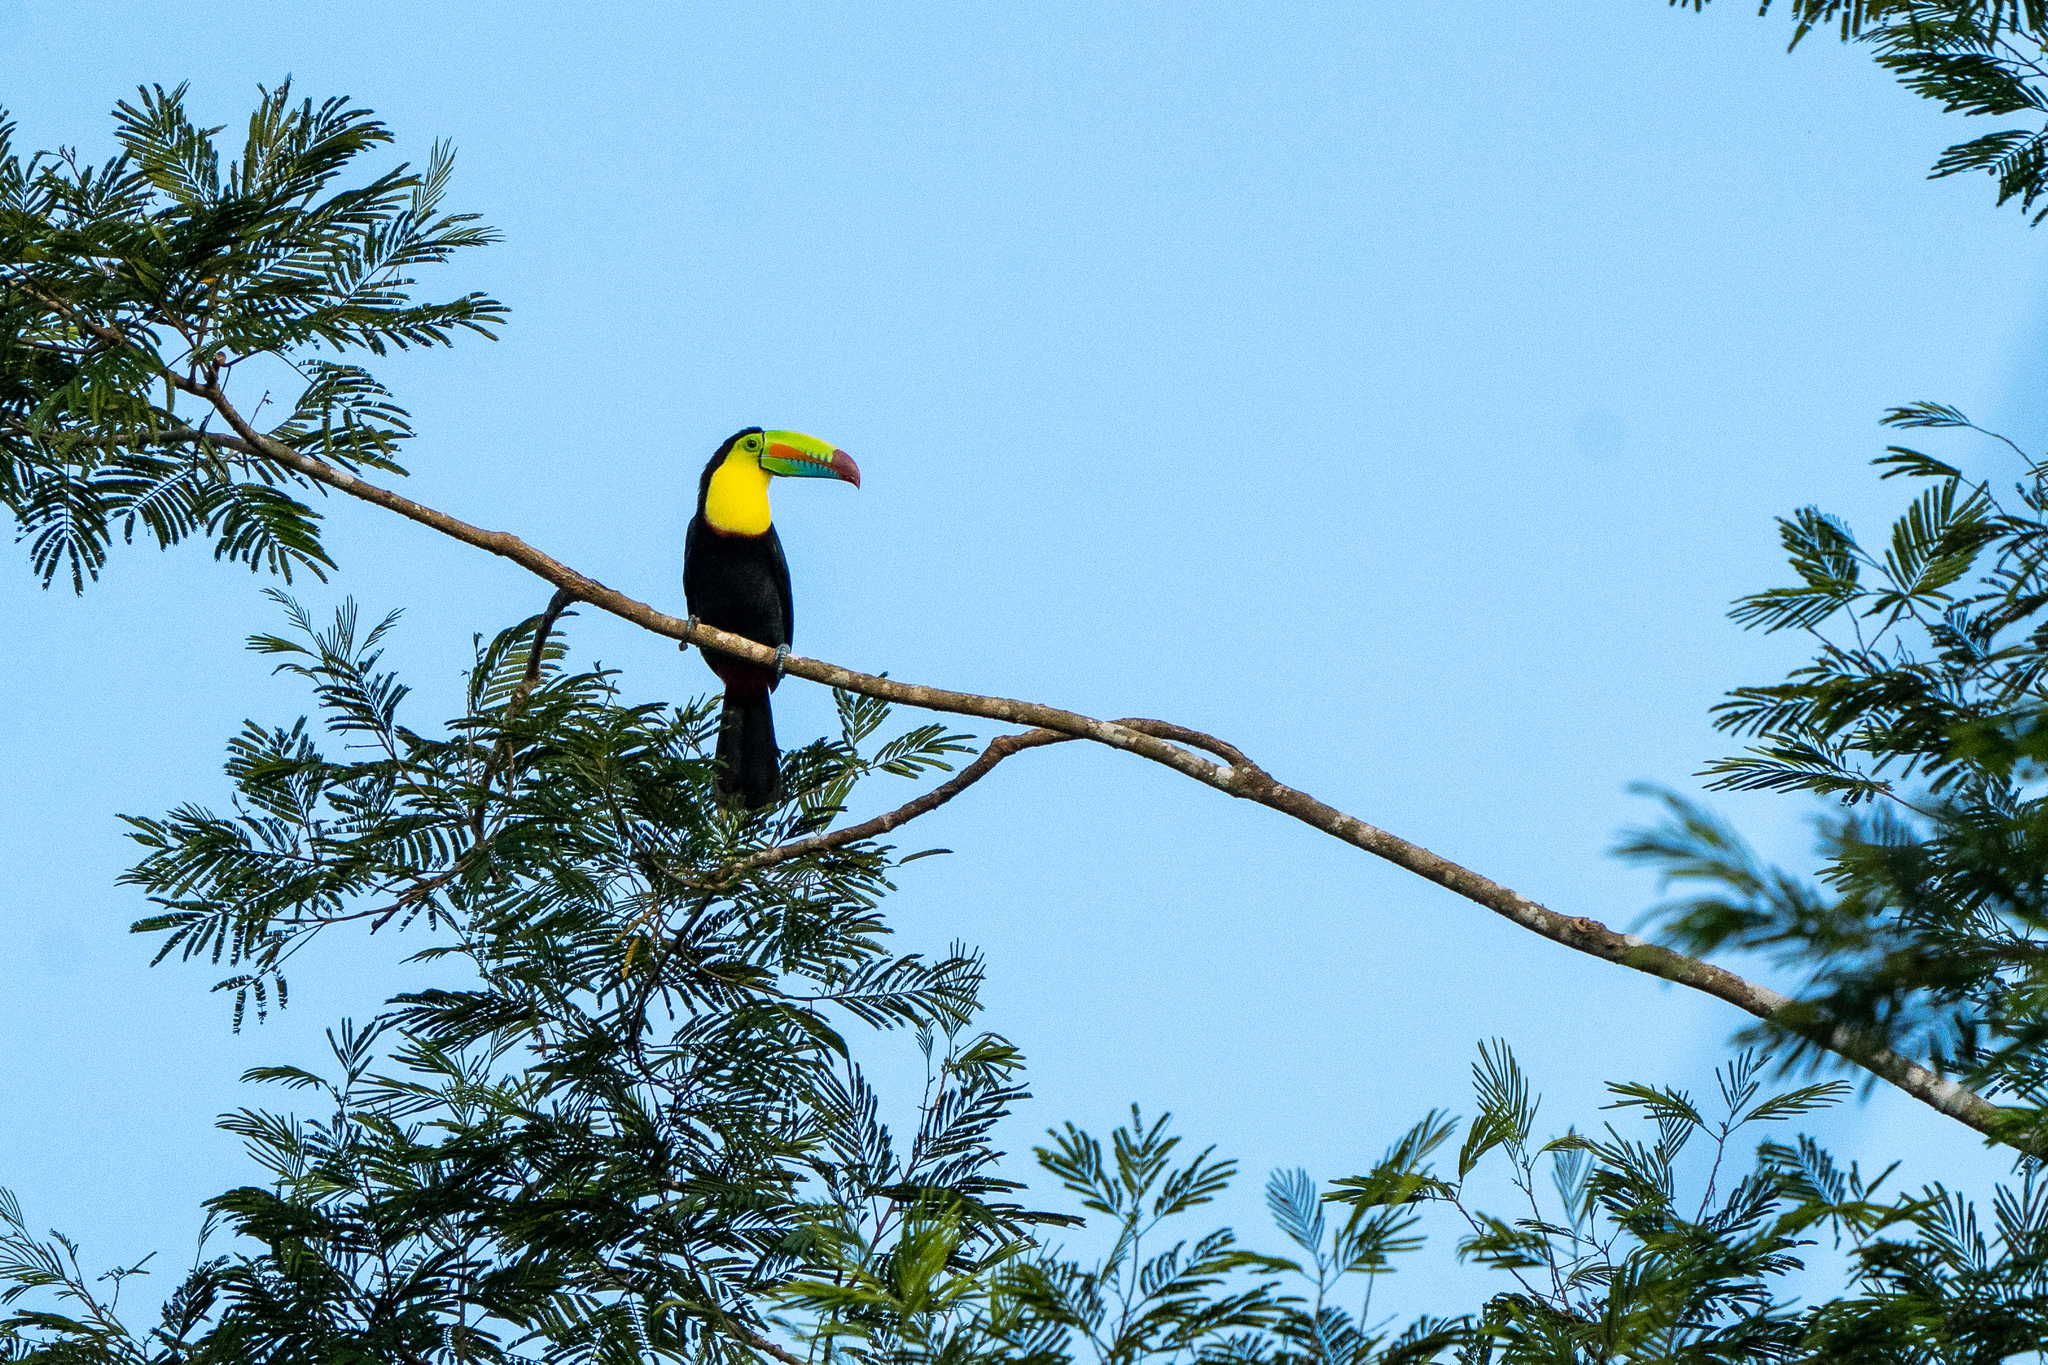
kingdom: Animalia
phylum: Chordata
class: Aves
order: Piciformes
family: Ramphastidae
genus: Ramphastos
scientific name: Ramphastos sulfuratus
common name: Keel-billed toucan
